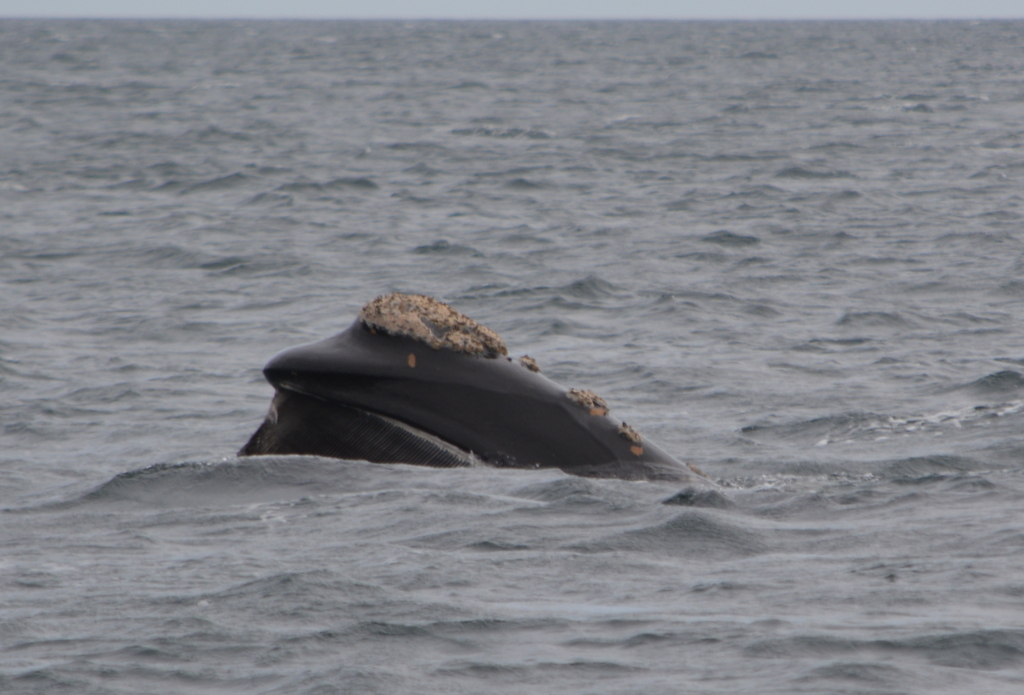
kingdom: Animalia
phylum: Chordata
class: Mammalia
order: Cetacea
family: Balaenidae
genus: Eubalaena
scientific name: Eubalaena australis
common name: Southern right whale
